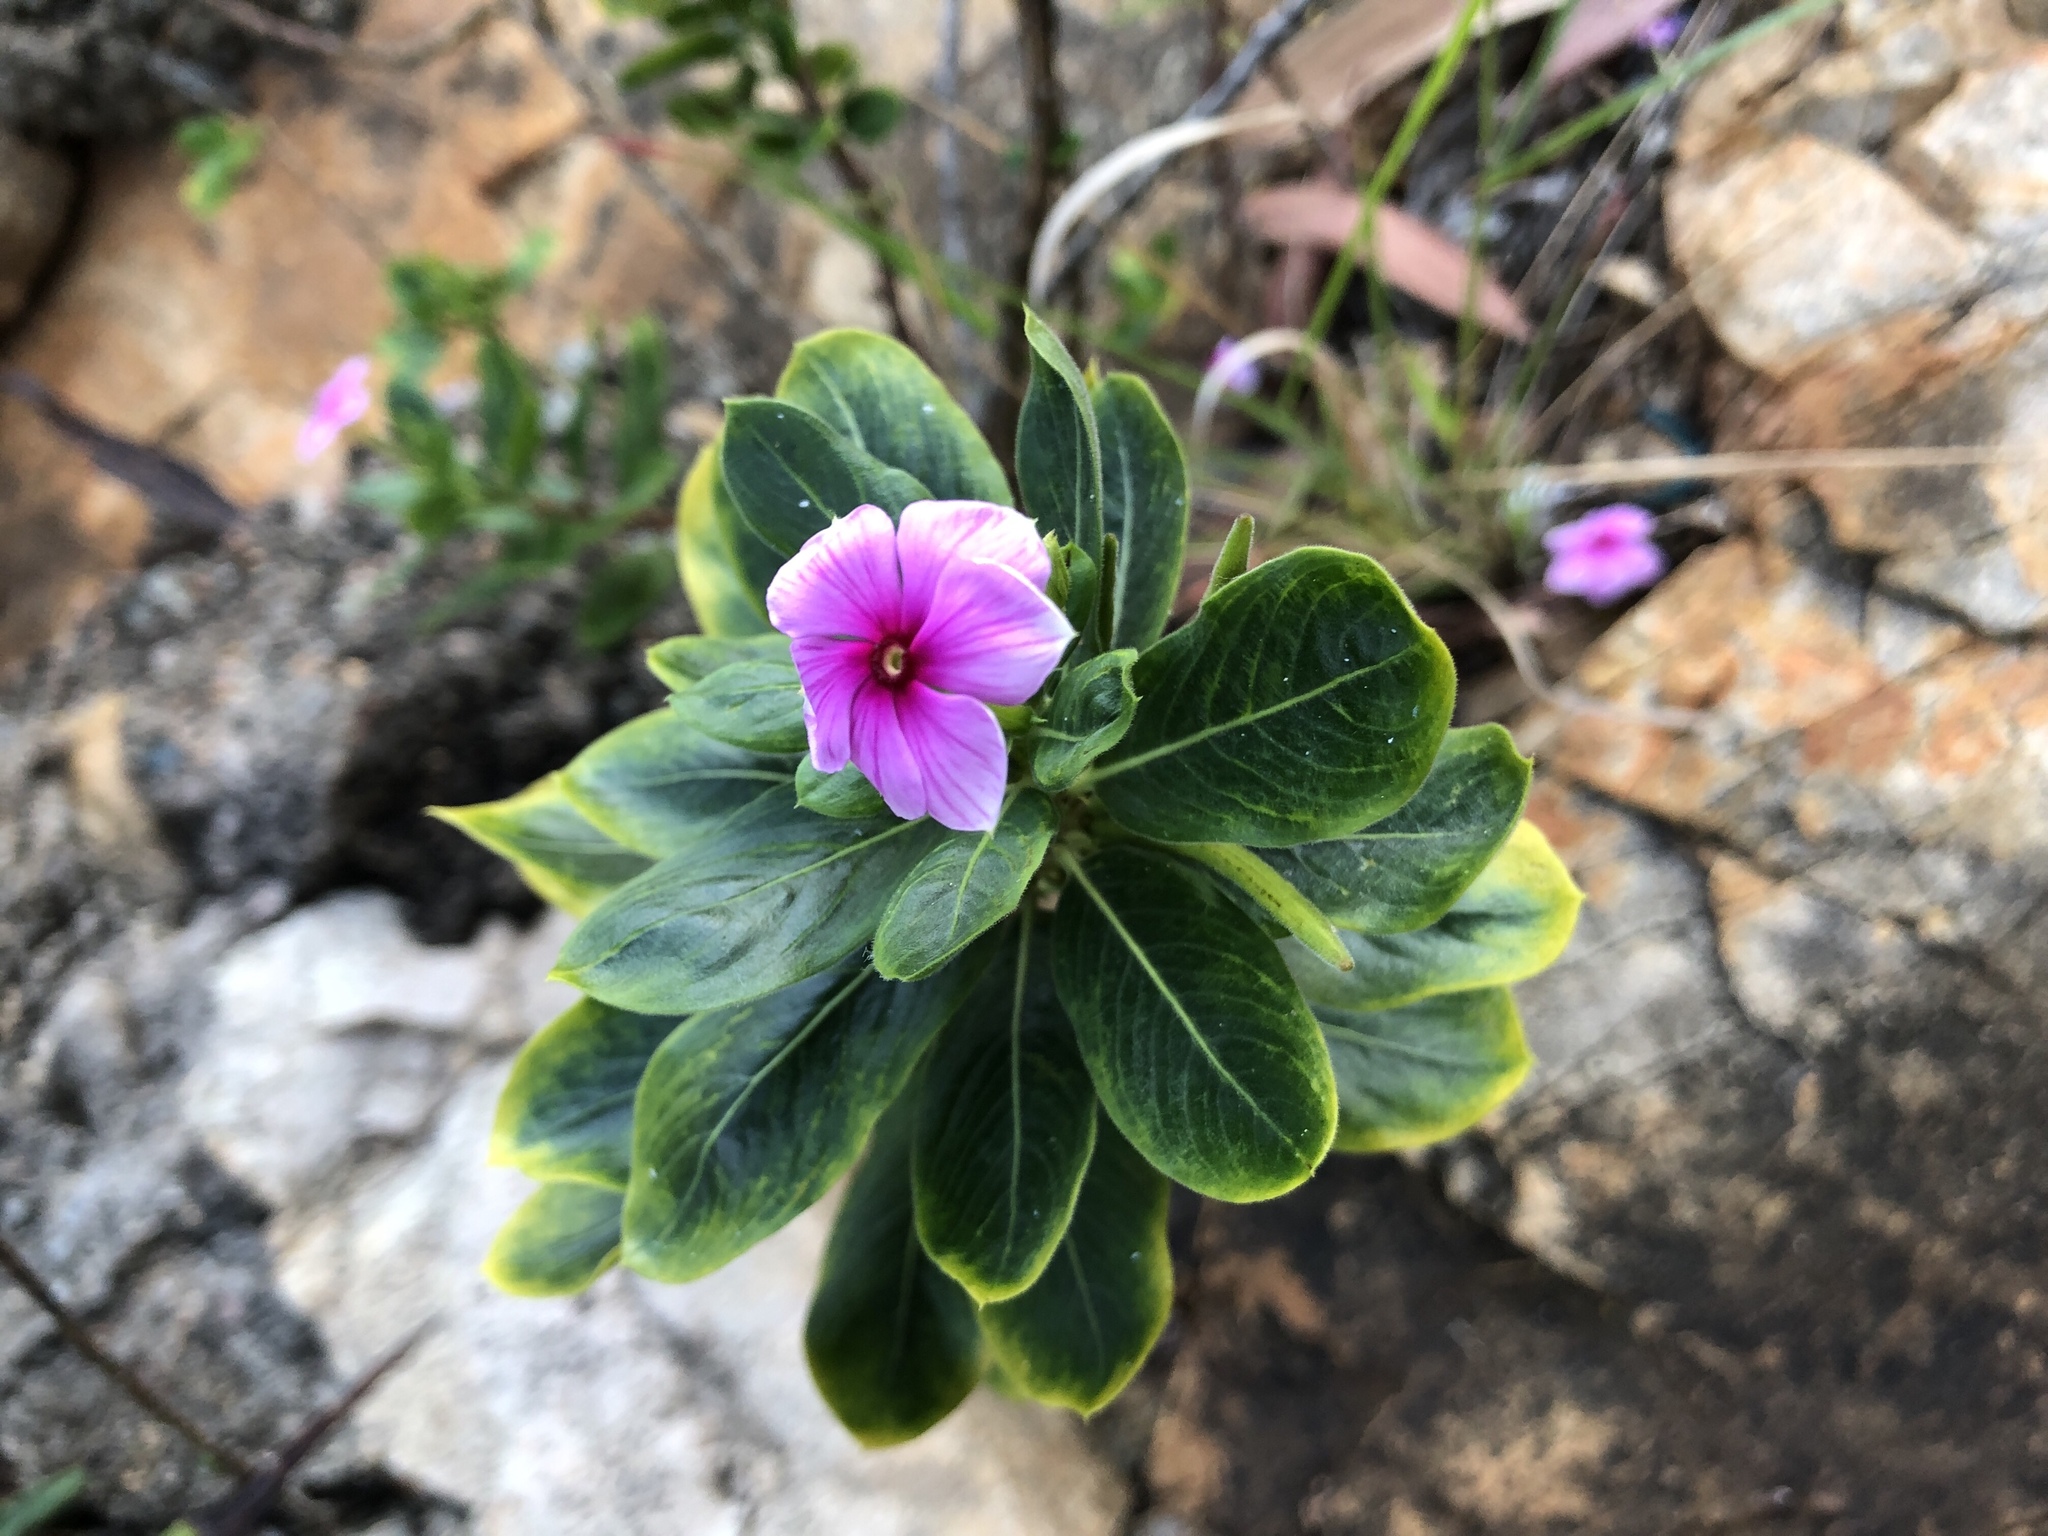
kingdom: Plantae
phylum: Tracheophyta
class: Magnoliopsida
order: Gentianales
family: Apocynaceae
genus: Catharanthus
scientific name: Catharanthus roseus
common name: Madagascar periwinkle
